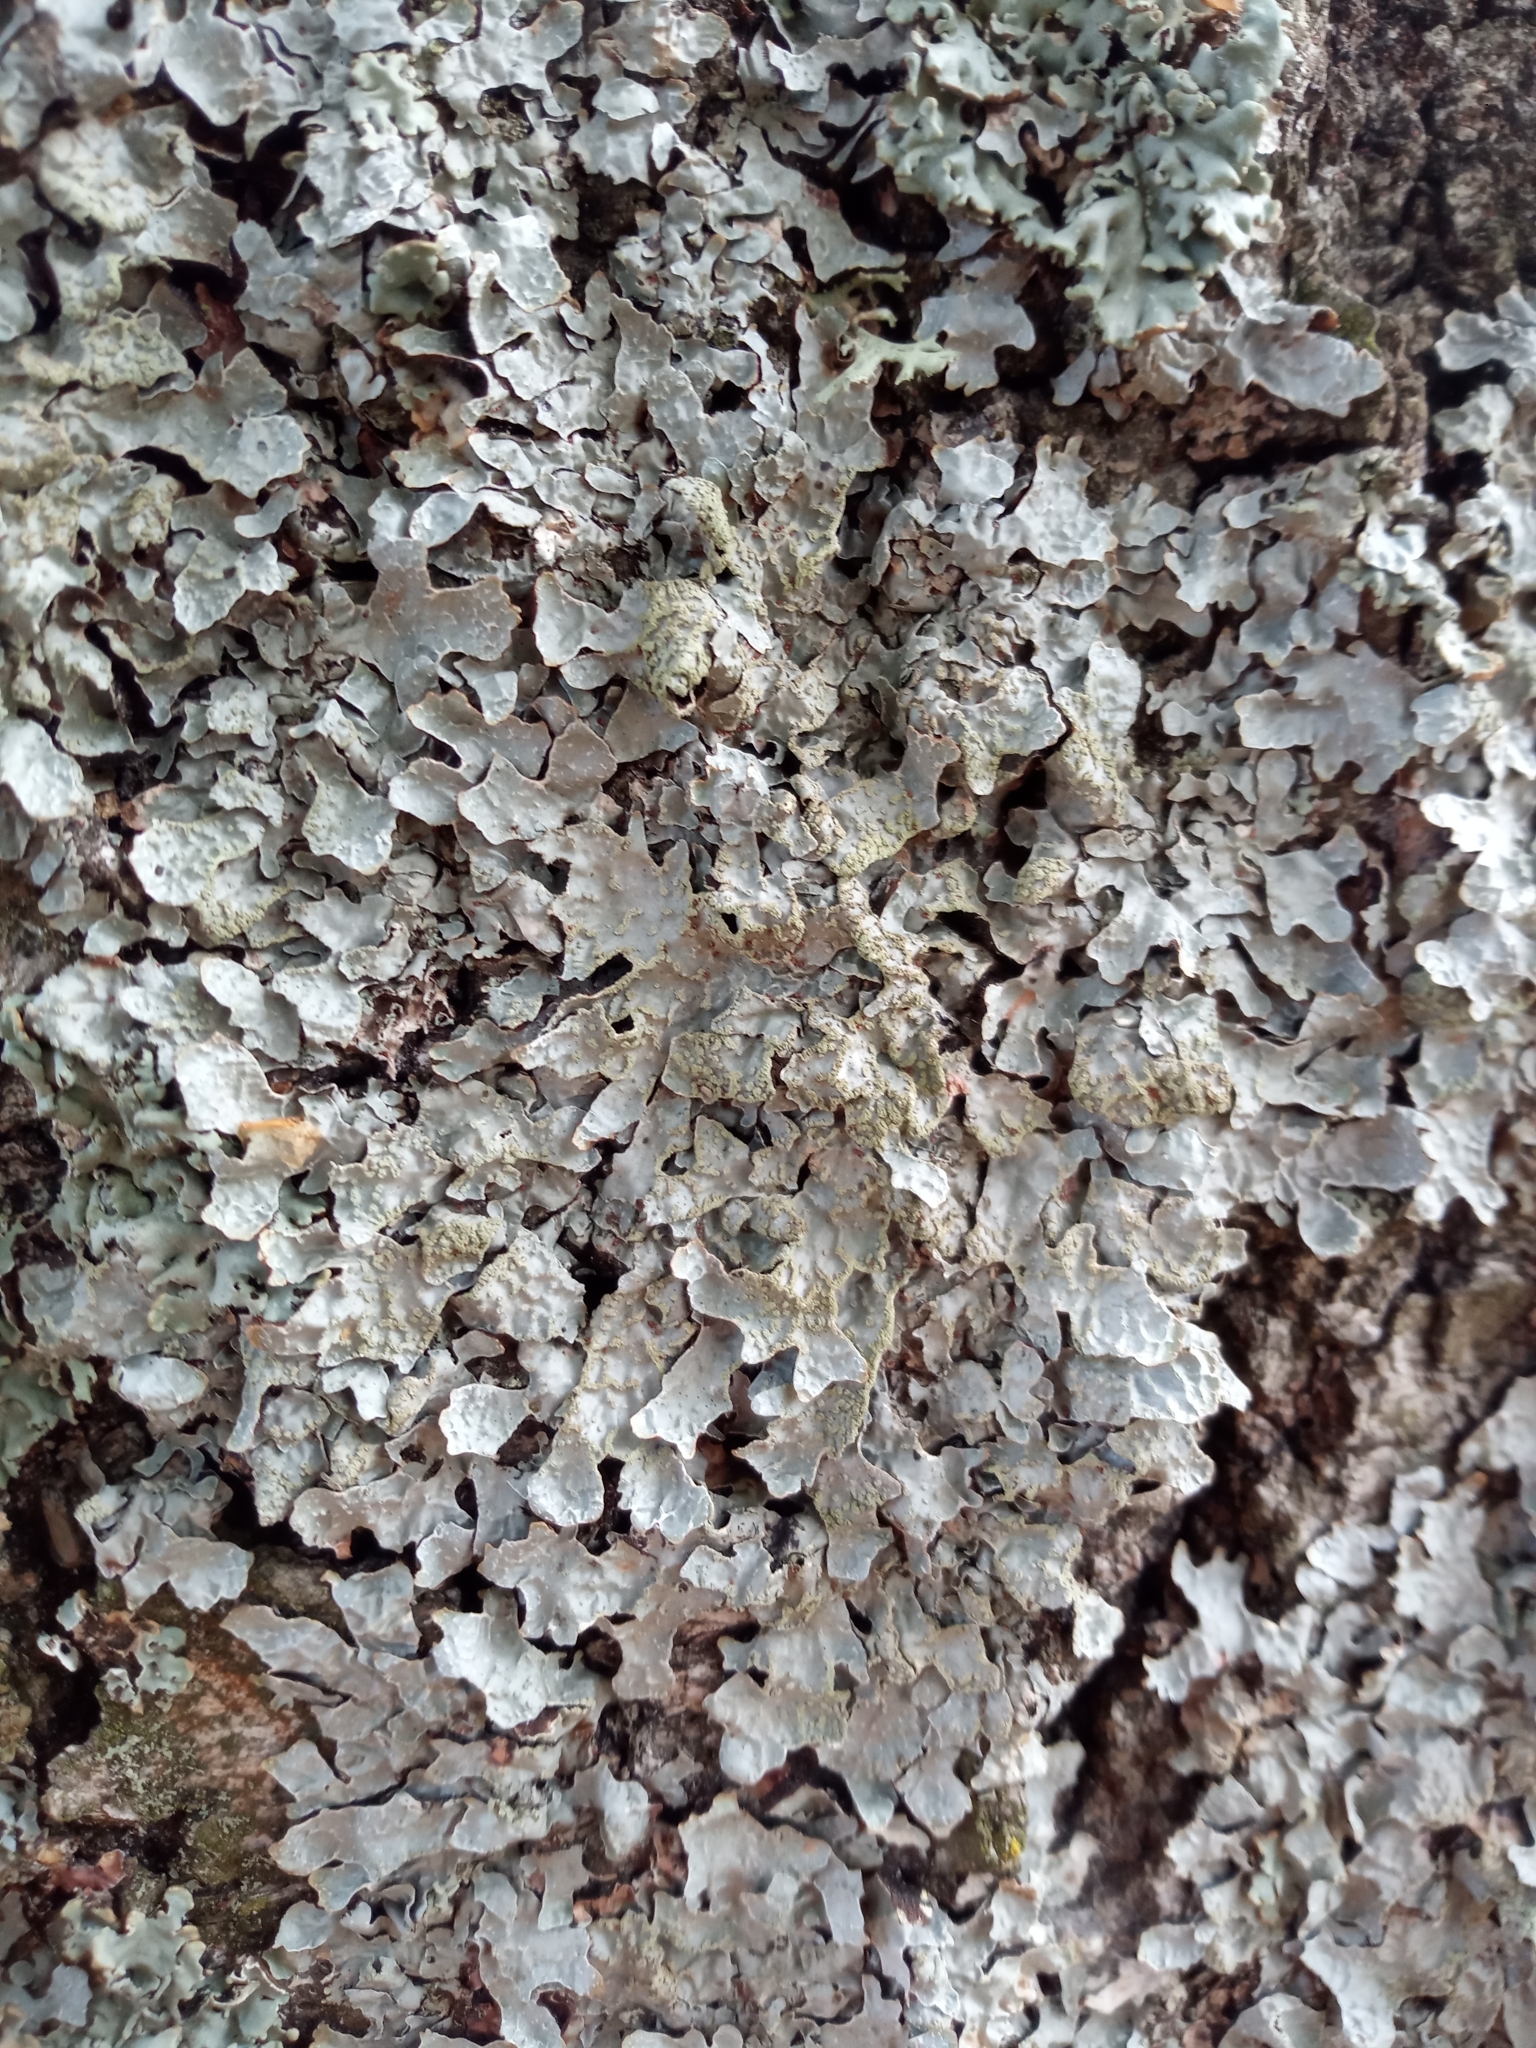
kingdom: Fungi
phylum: Ascomycota
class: Lecanoromycetes
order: Lecanorales
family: Parmeliaceae
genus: Parmelia
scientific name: Parmelia sulcata
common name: Netted shield lichen
